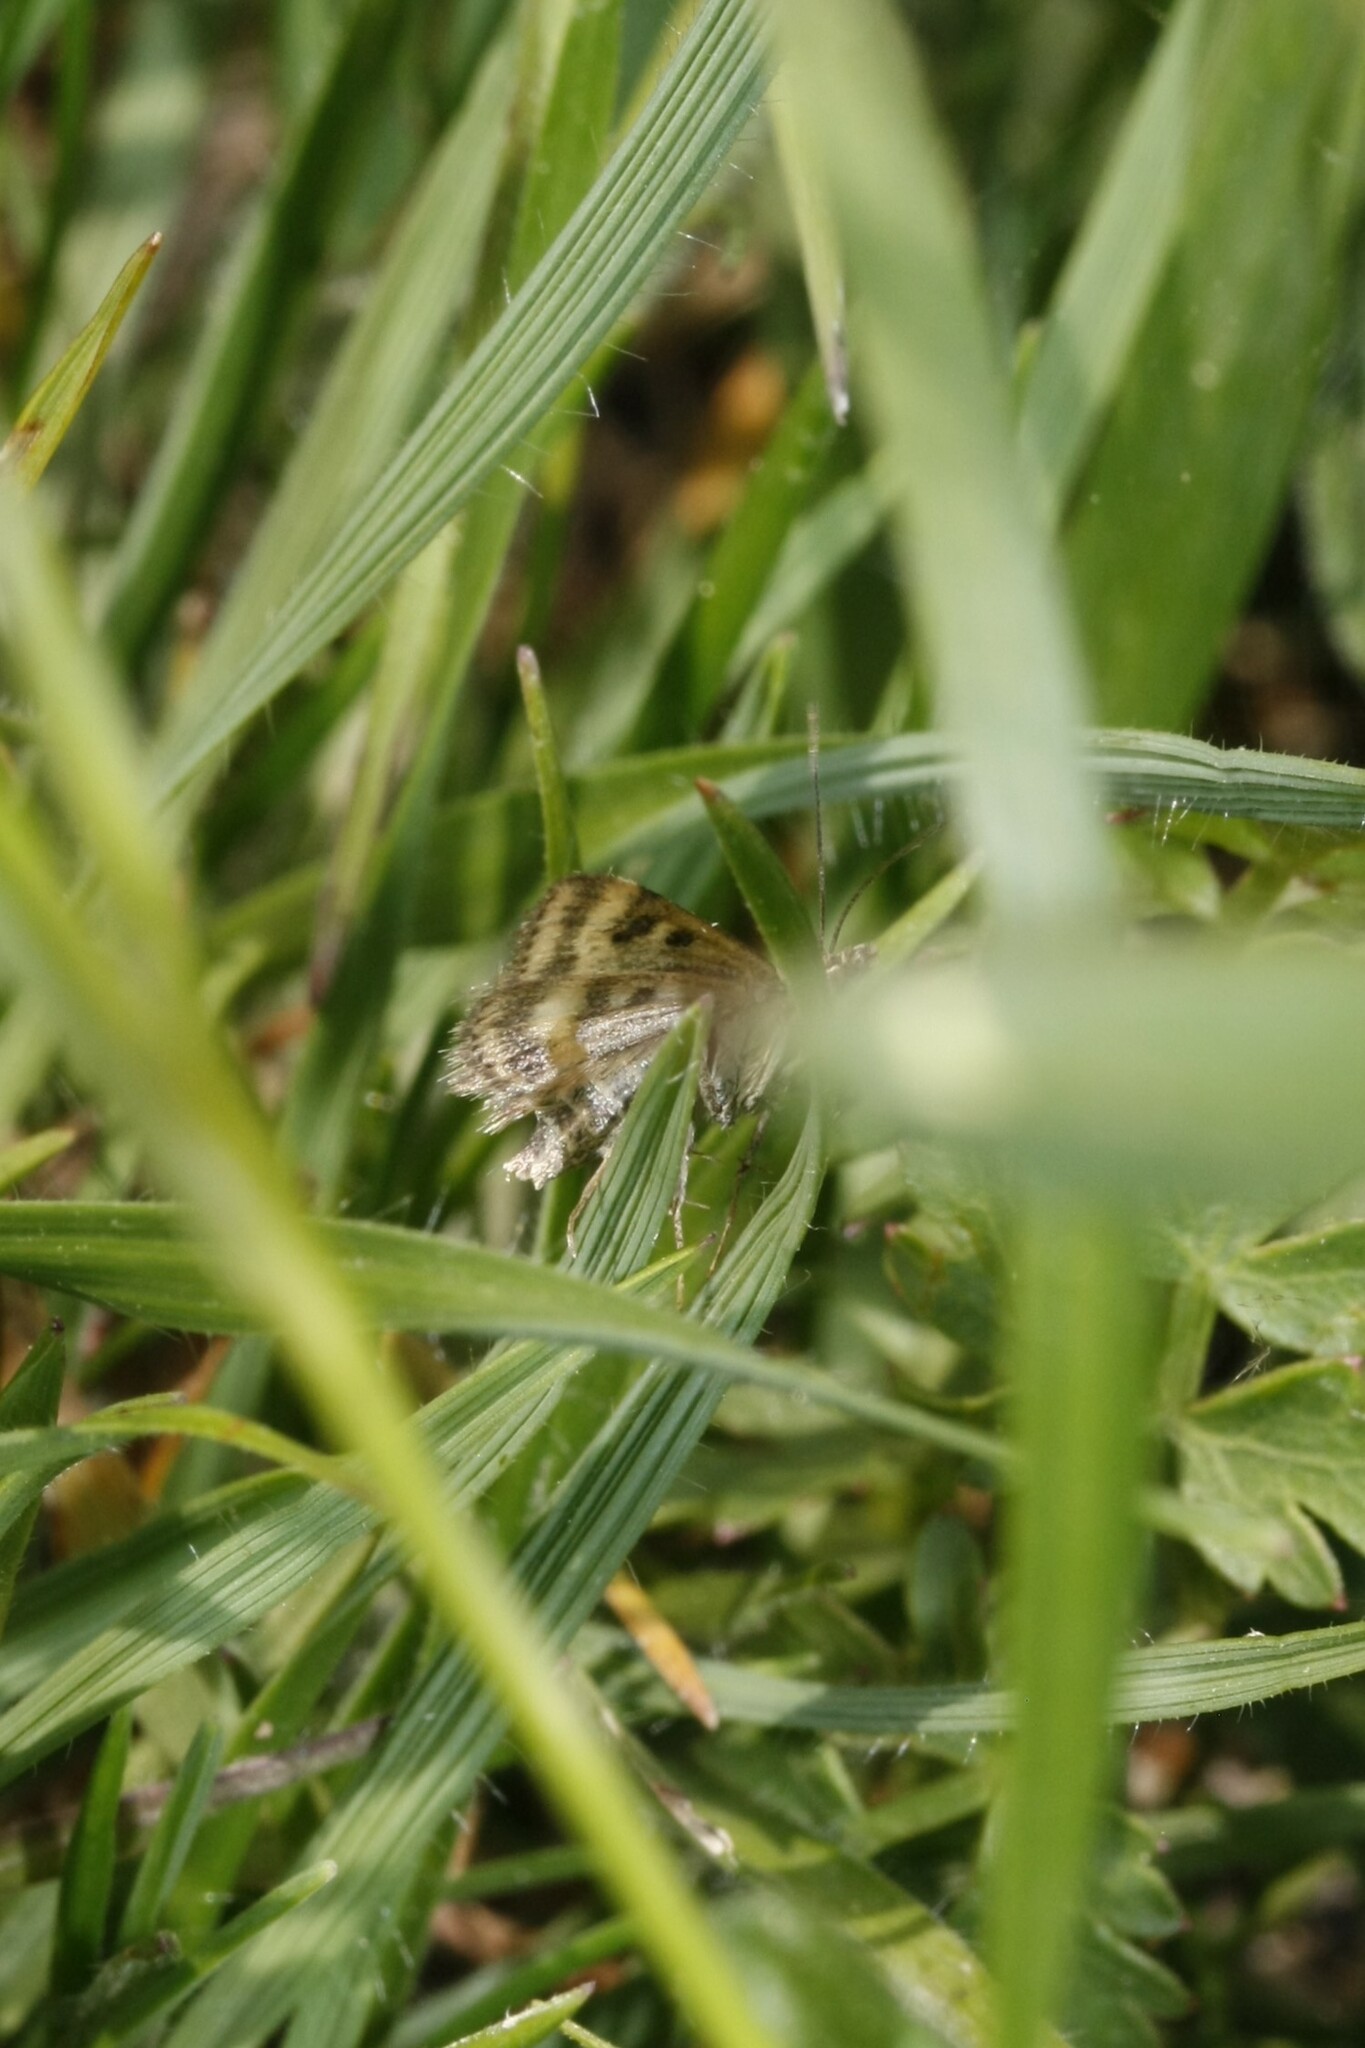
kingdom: Animalia
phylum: Arthropoda
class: Insecta
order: Lepidoptera
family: Crambidae
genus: Pyrausta
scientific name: Pyrausta despicata
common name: Straw-barred pearl
